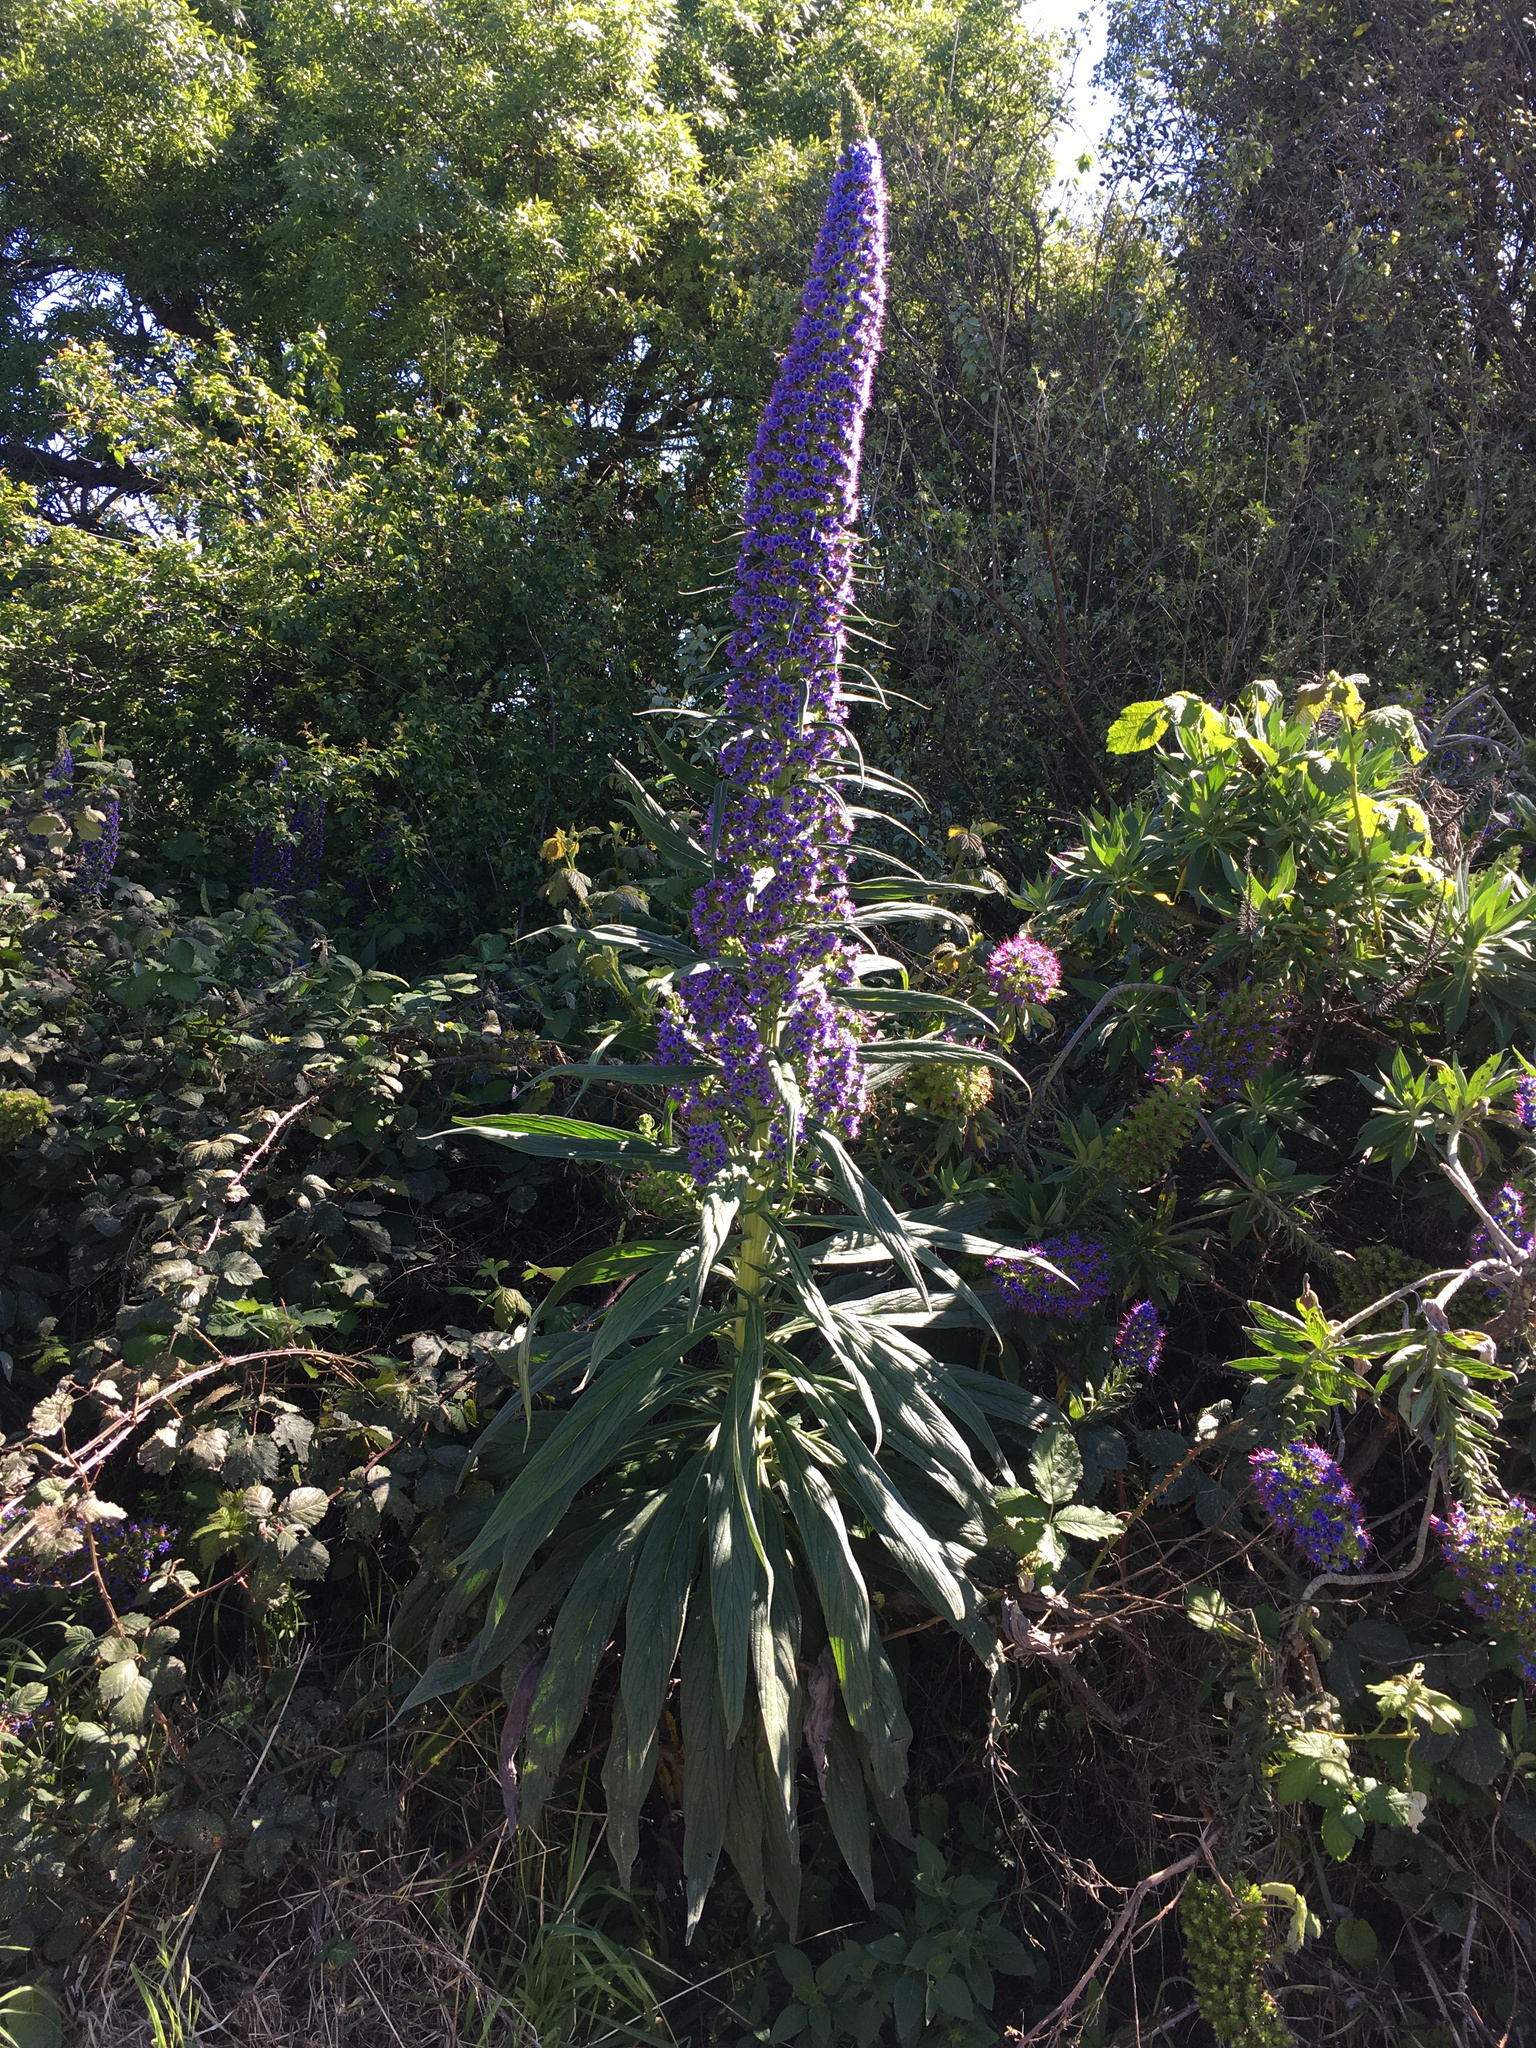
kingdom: Plantae
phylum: Tracheophyta
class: Magnoliopsida
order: Boraginales
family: Boraginaceae
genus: Echium
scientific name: Echium pininana
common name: Giant viper's-bugloss
